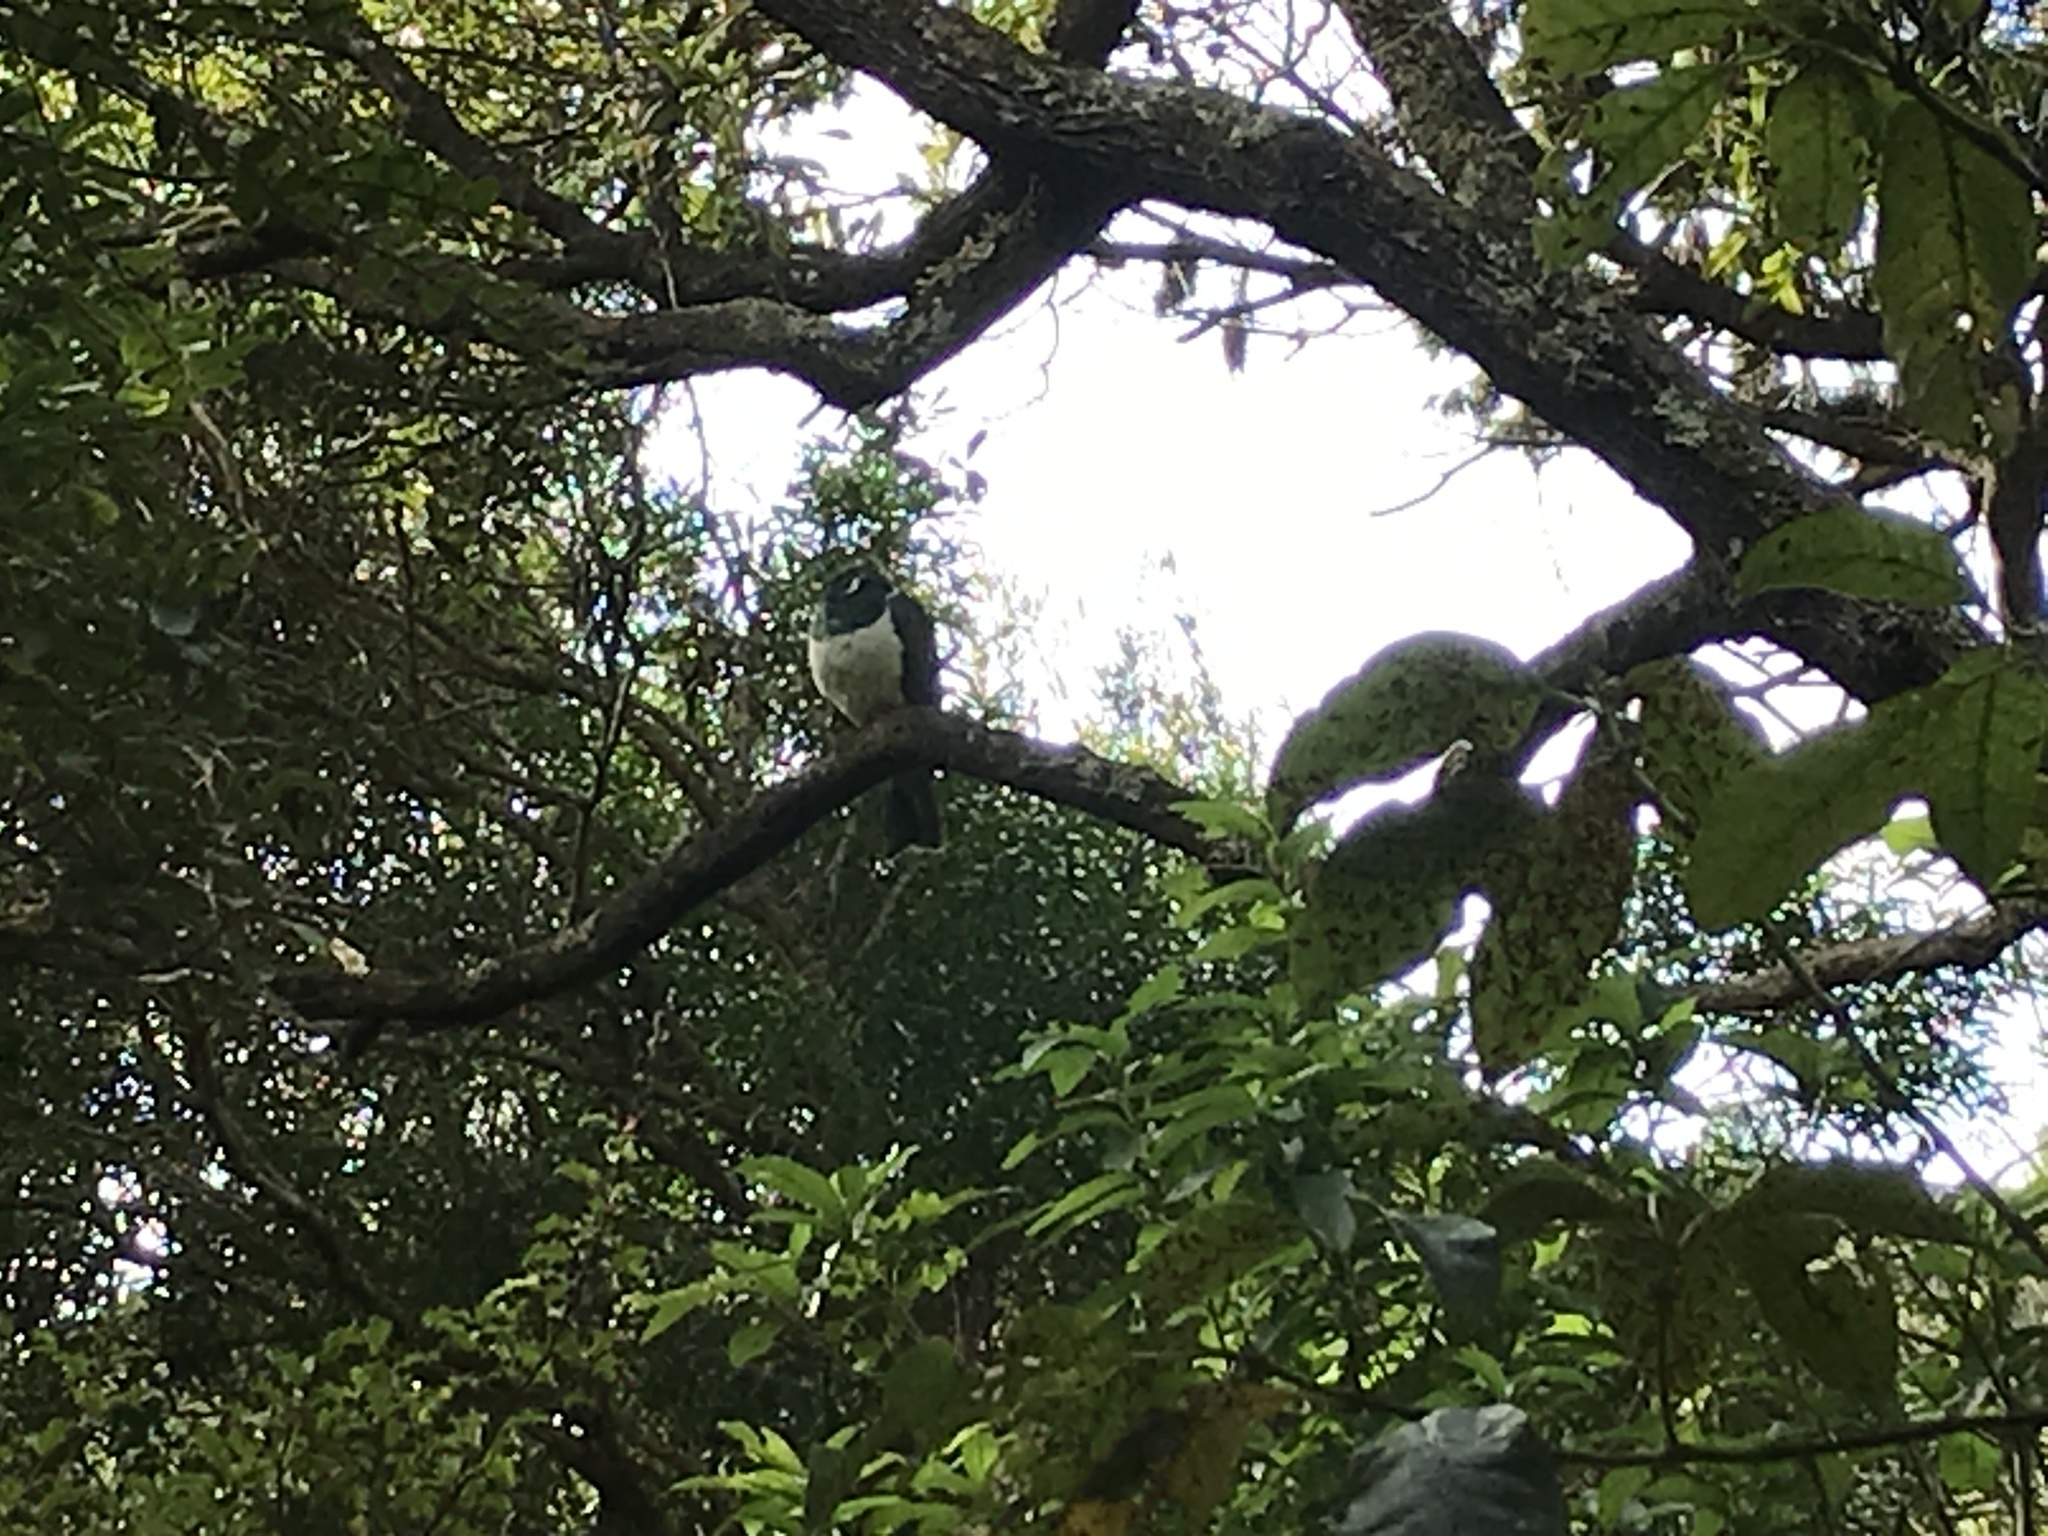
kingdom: Animalia
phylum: Chordata
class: Aves
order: Columbiformes
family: Columbidae
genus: Hemiphaga
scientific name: Hemiphaga novaeseelandiae
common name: New zealand pigeon
